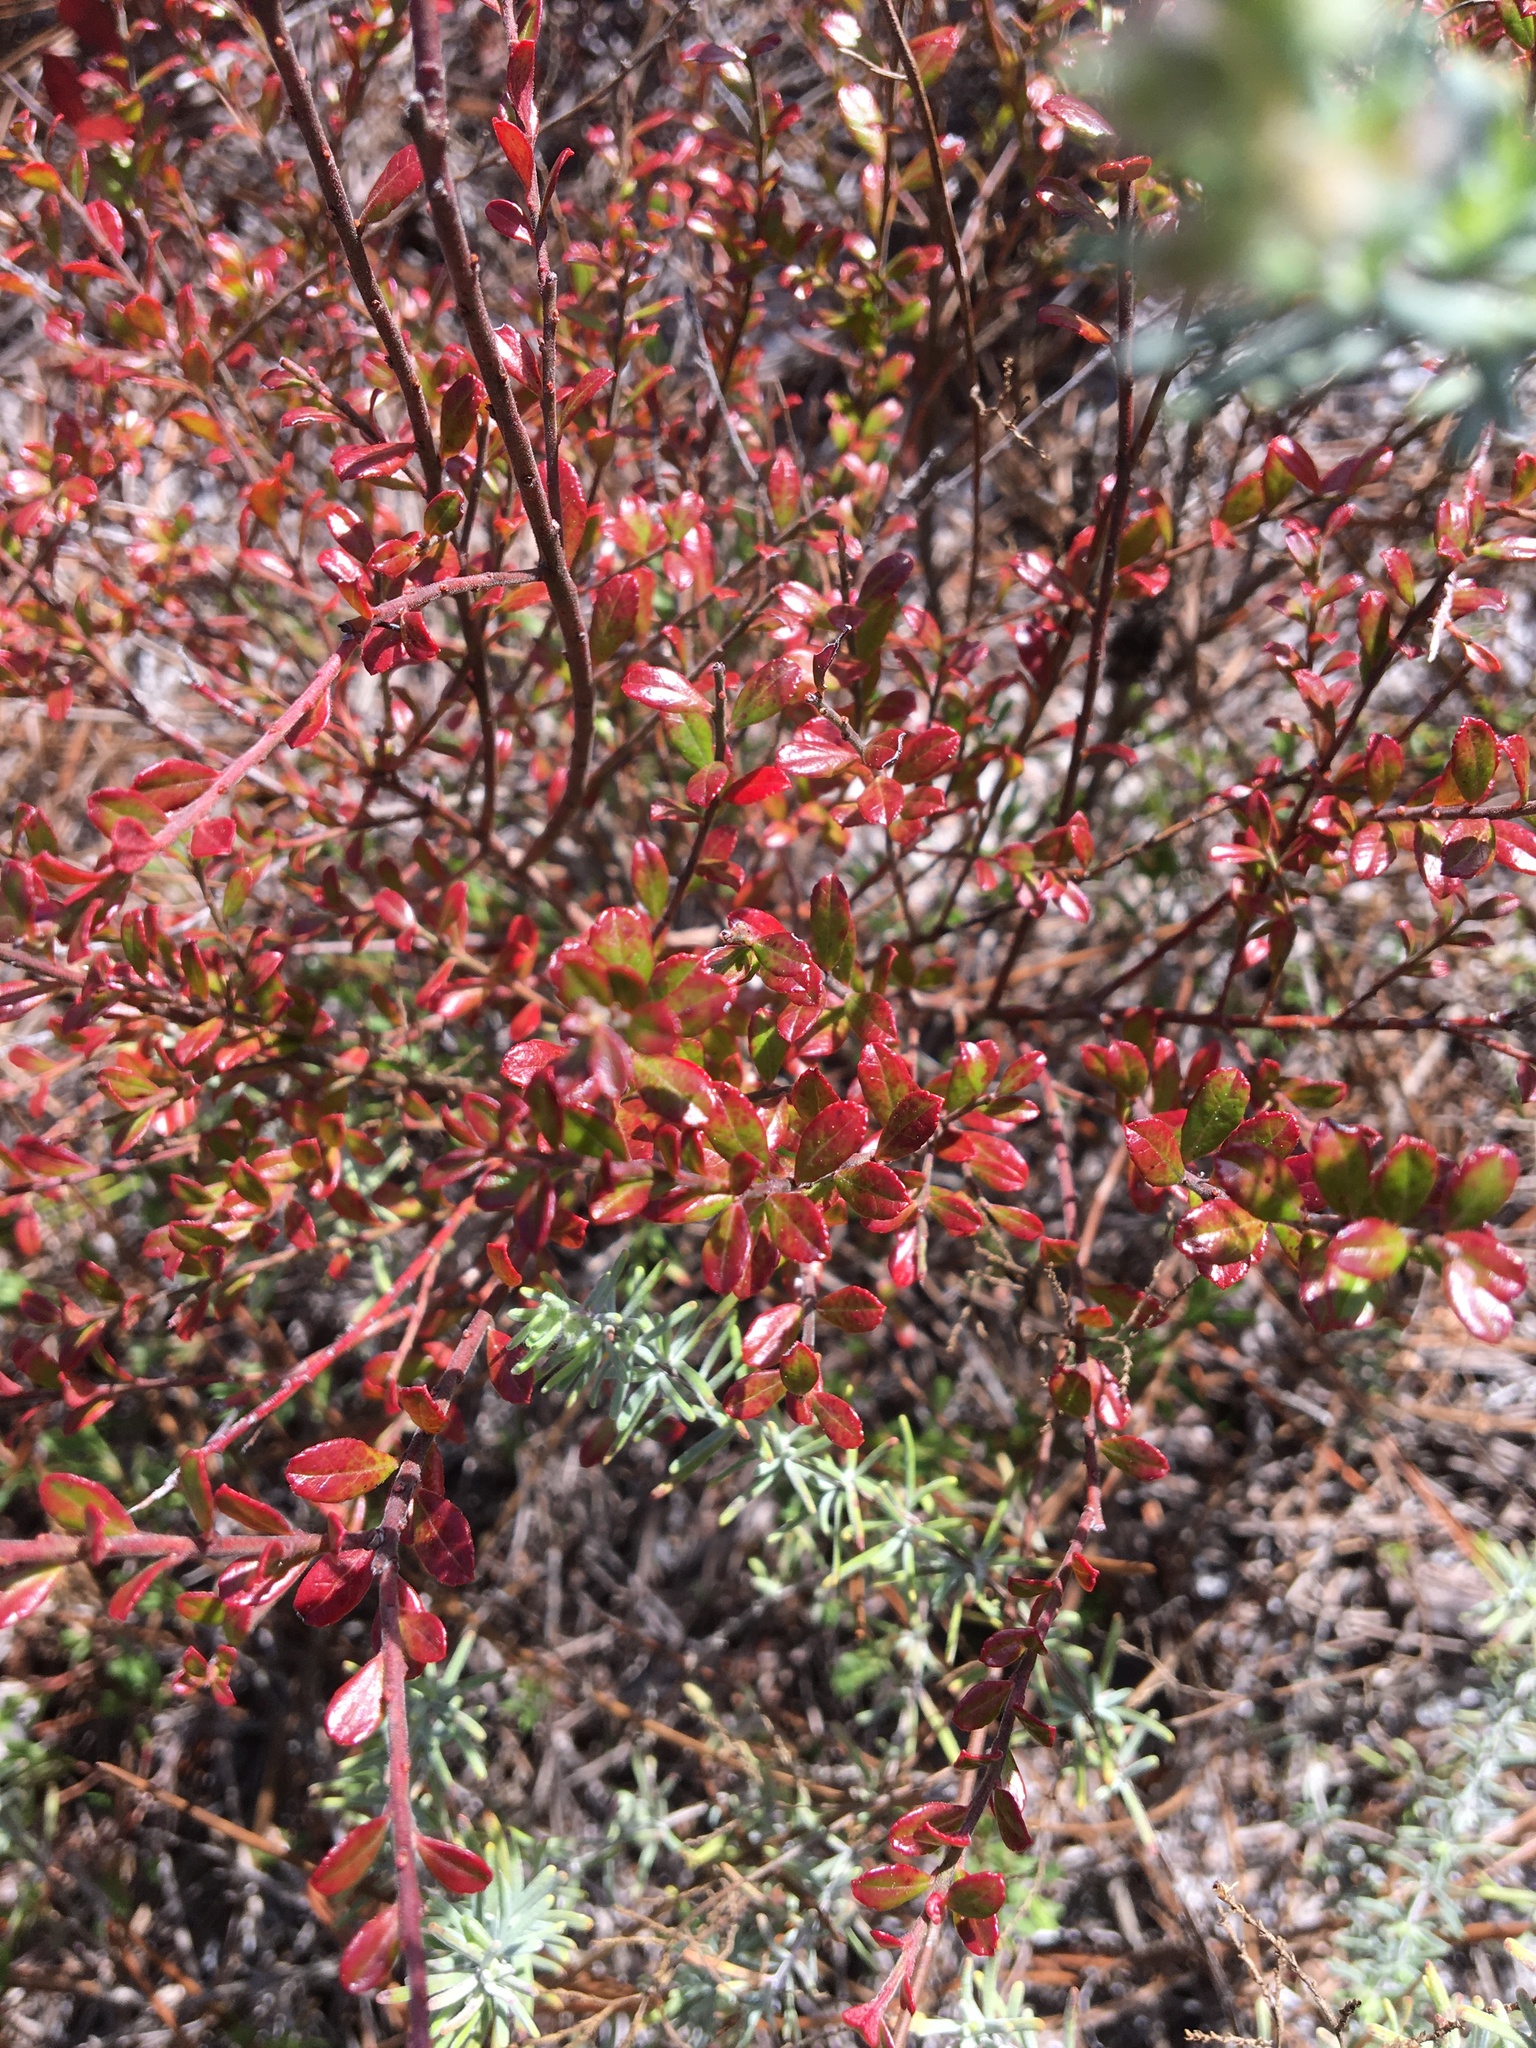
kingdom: Plantae
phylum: Tracheophyta
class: Magnoliopsida
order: Ericales
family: Ericaceae
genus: Vaccinium
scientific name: Vaccinium myrsinites
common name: Evergreen blueberry
